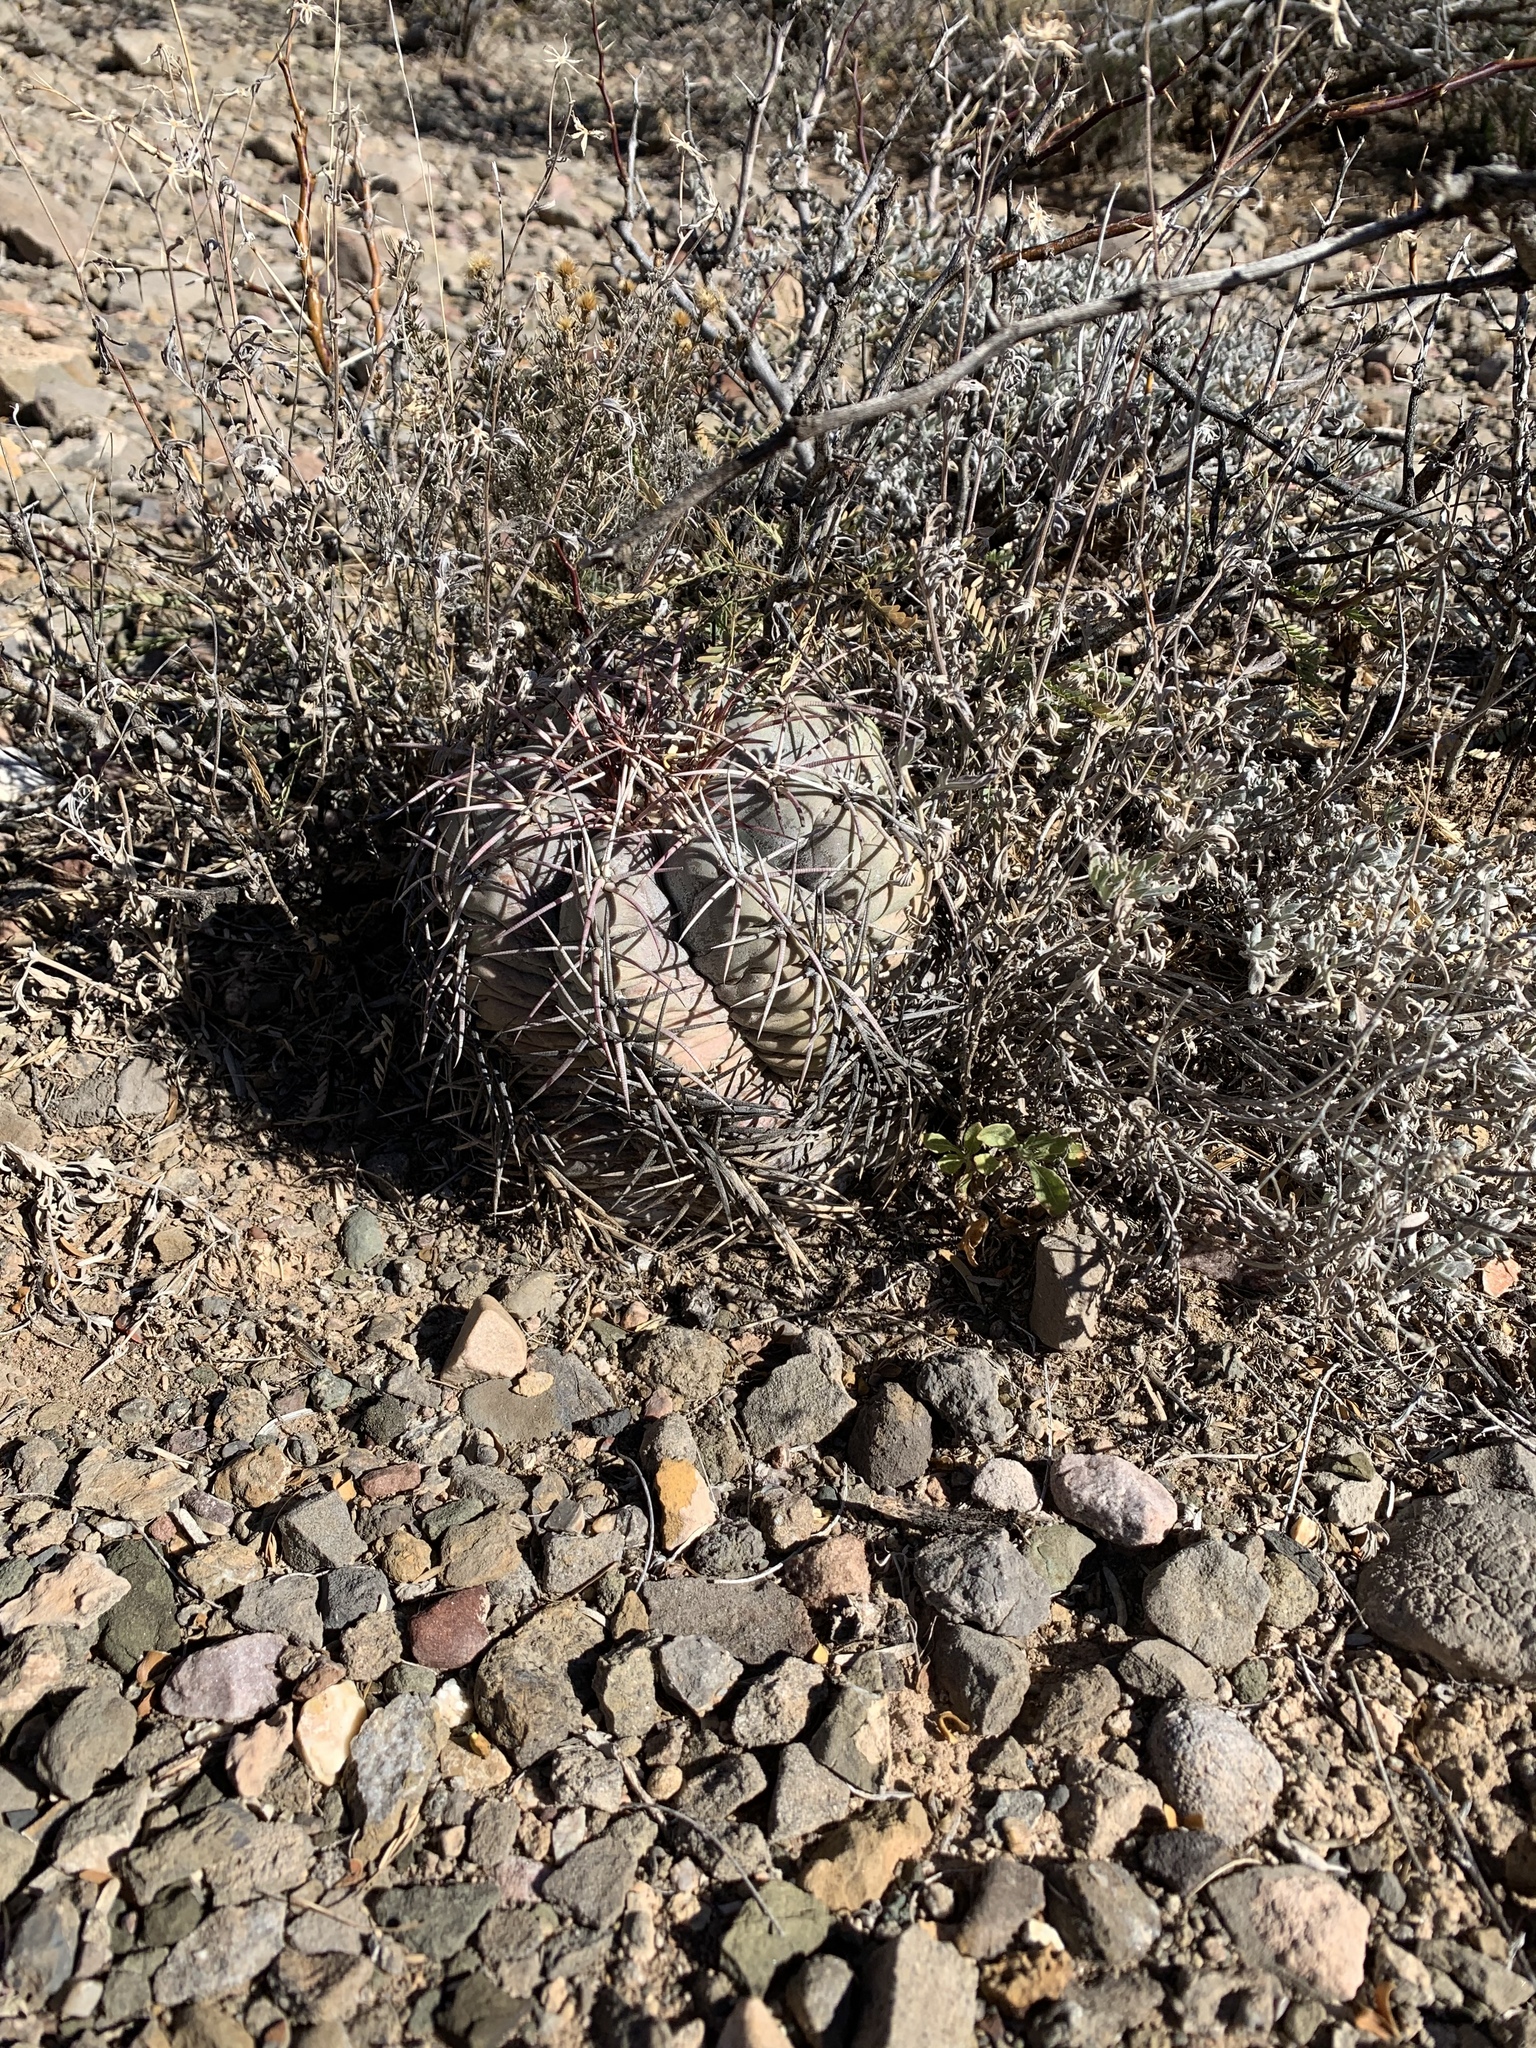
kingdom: Plantae
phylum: Tracheophyta
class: Magnoliopsida
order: Caryophyllales
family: Cactaceae
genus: Echinocactus
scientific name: Echinocactus horizonthalonius
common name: Devilshead
